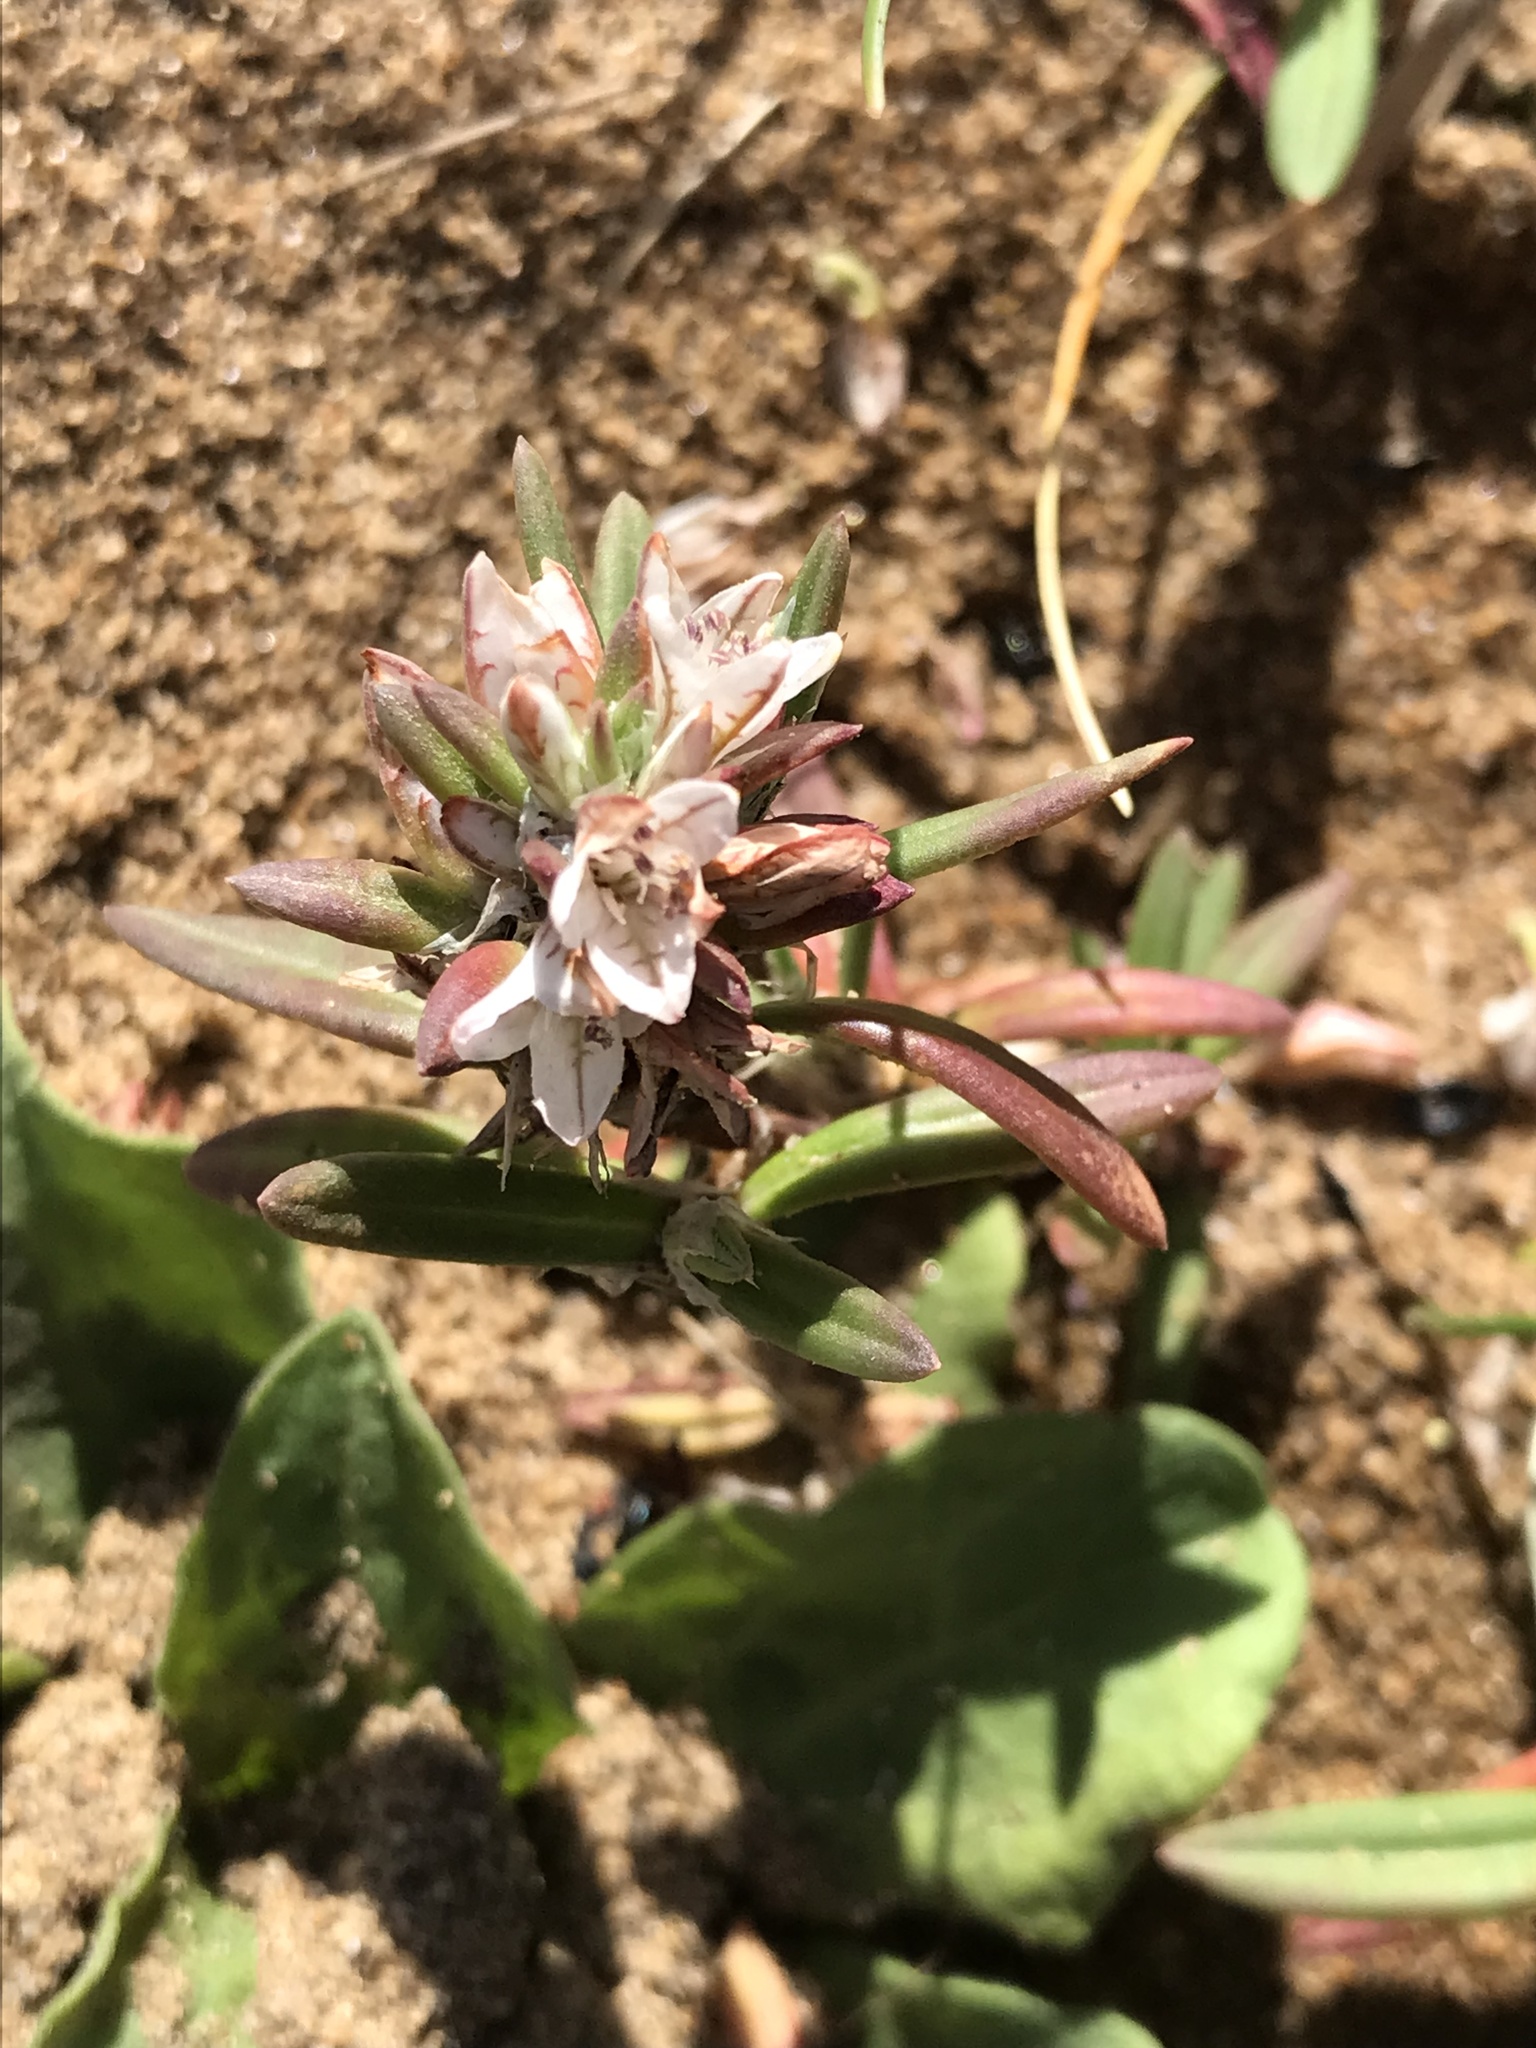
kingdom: Plantae
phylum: Tracheophyta
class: Magnoliopsida
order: Caryophyllales
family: Polygonaceae
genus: Polygonum
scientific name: Polygonum paronychia
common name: Dune knotweed
